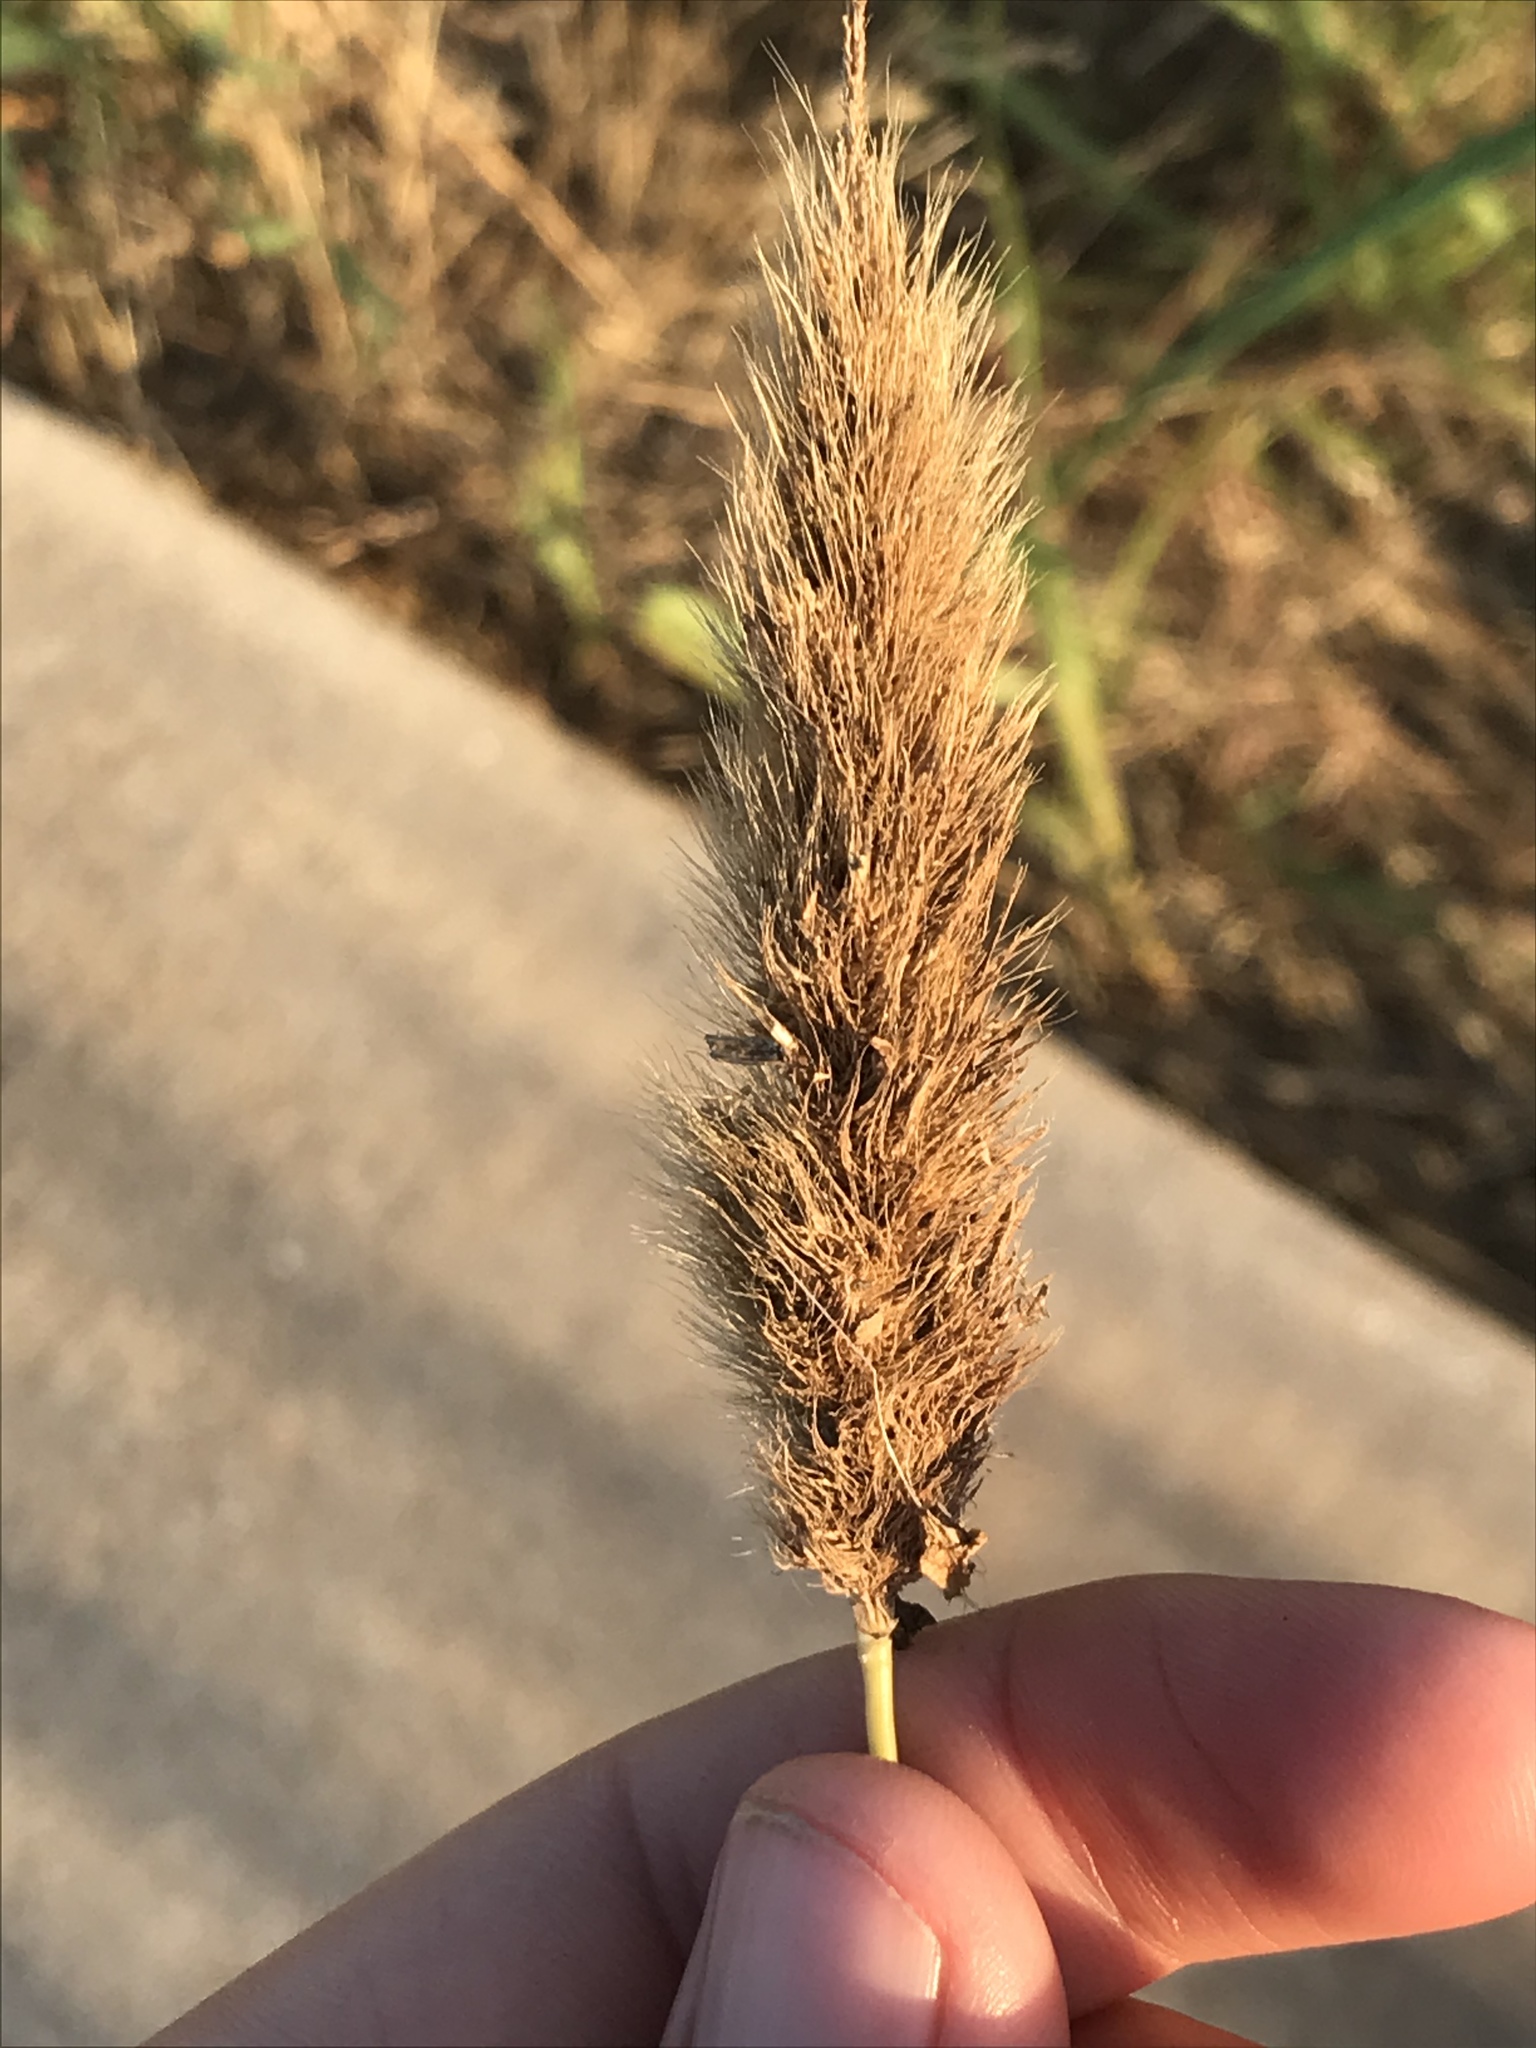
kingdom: Plantae
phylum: Tracheophyta
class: Liliopsida
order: Poales
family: Poaceae
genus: Polypogon
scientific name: Polypogon monspeliensis
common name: Annual rabbitsfoot grass
